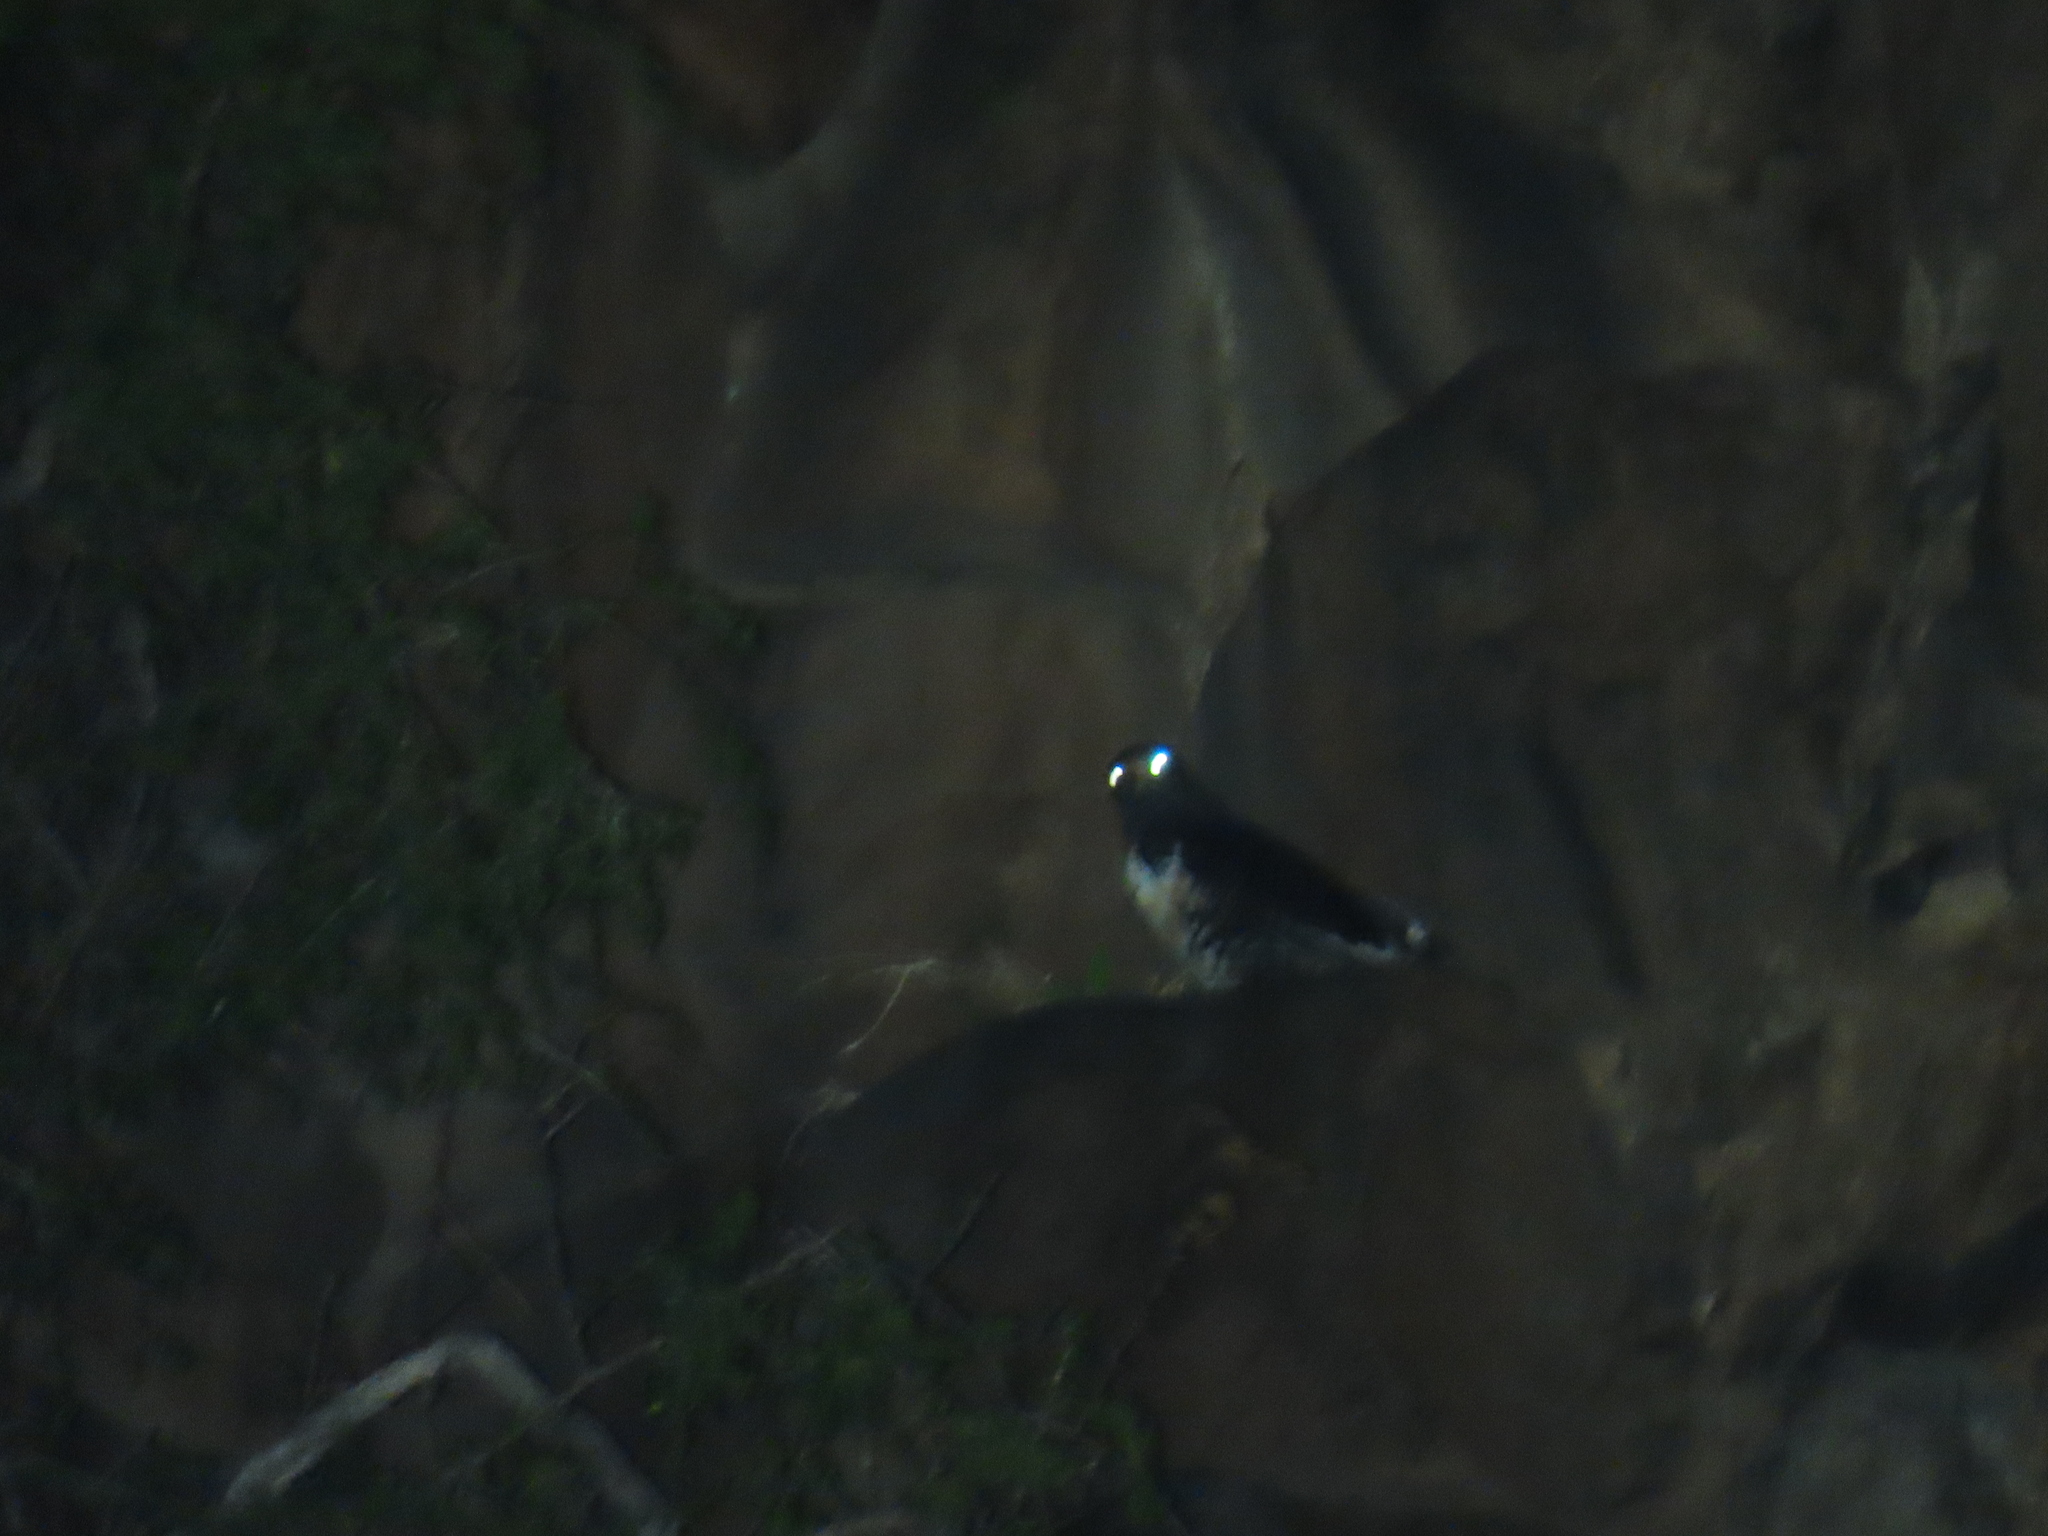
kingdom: Animalia
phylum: Chordata
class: Aves
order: Accipitriformes
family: Accipitridae
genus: Buteo
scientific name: Buteo rufofuscus
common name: Jackal buzzard
